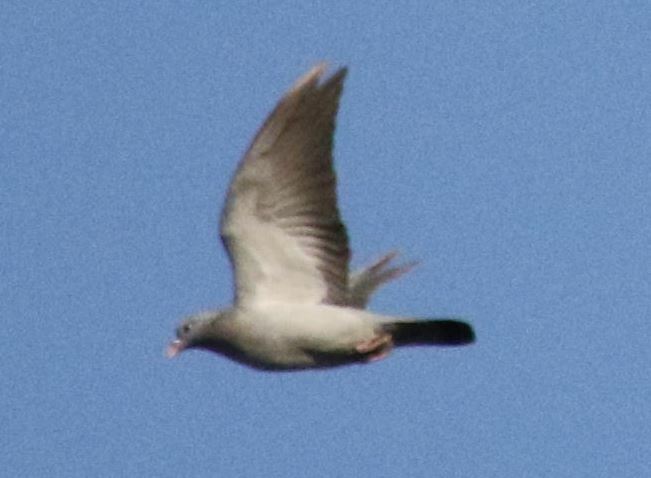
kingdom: Animalia
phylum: Chordata
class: Aves
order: Columbiformes
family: Columbidae
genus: Columba
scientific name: Columba oenas
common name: Stock dove
